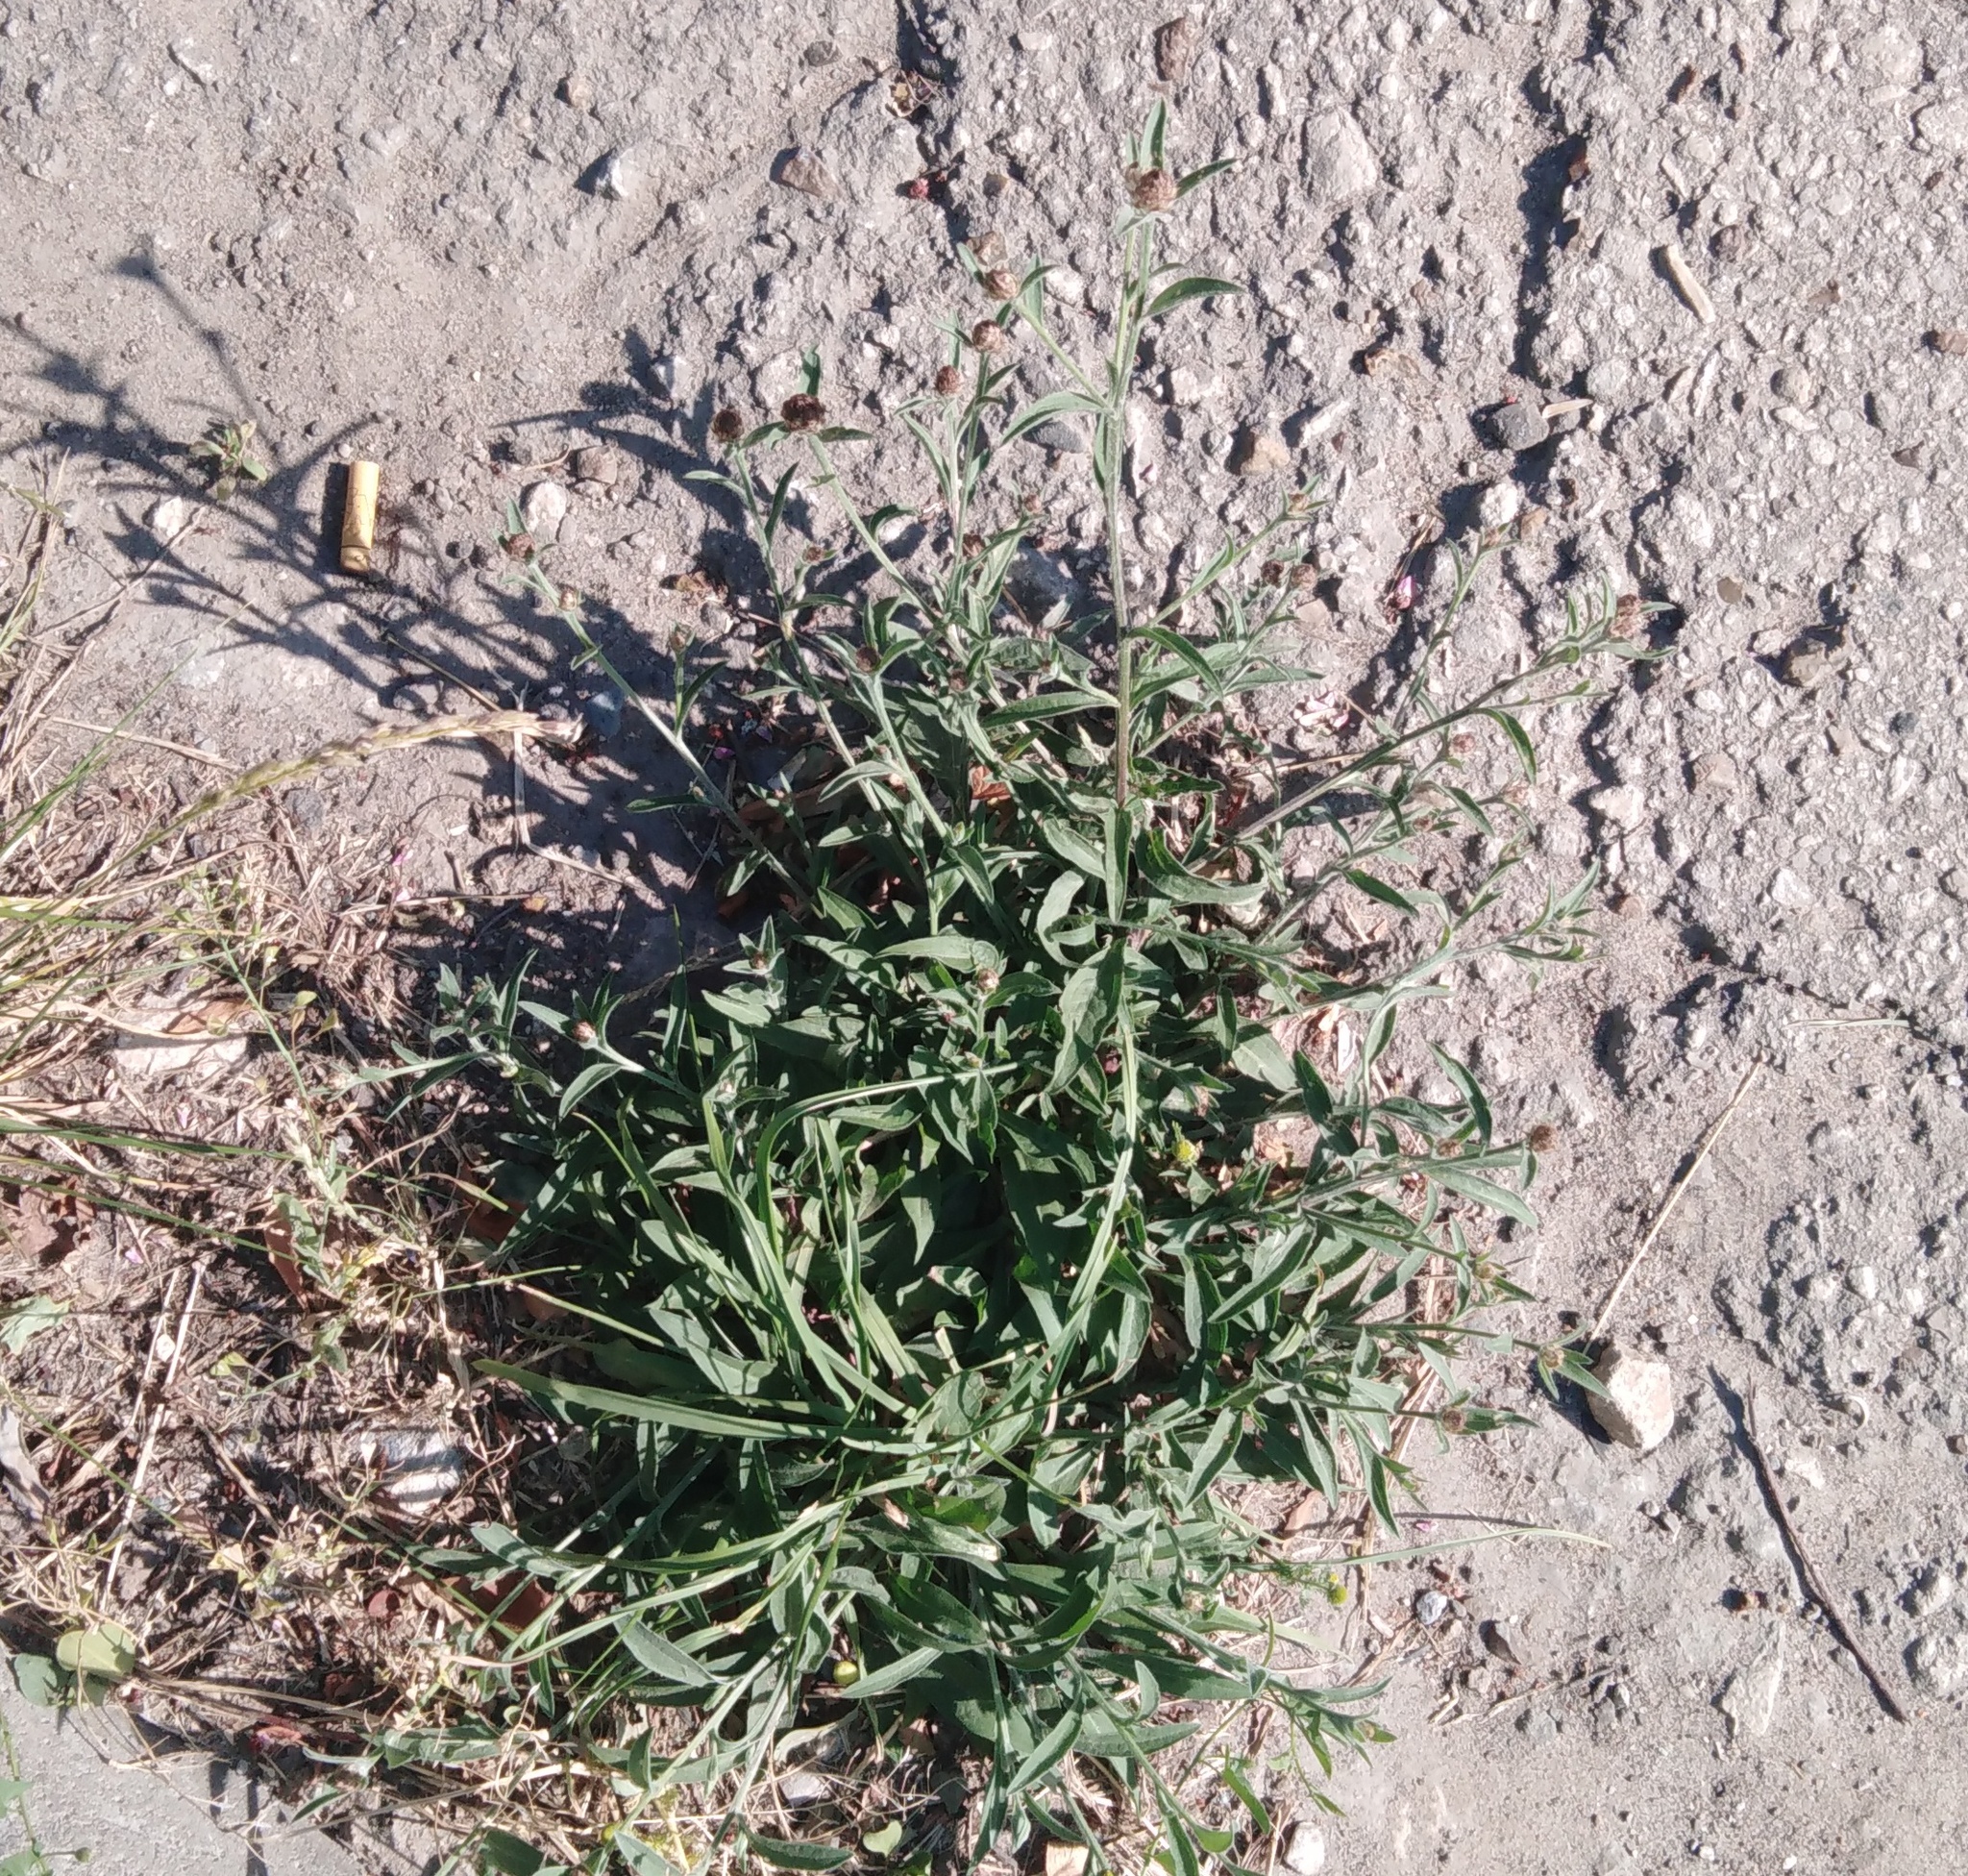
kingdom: Plantae
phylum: Tracheophyta
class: Magnoliopsida
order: Asterales
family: Asteraceae
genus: Centaurea
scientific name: Centaurea jacea
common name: Brown knapweed
